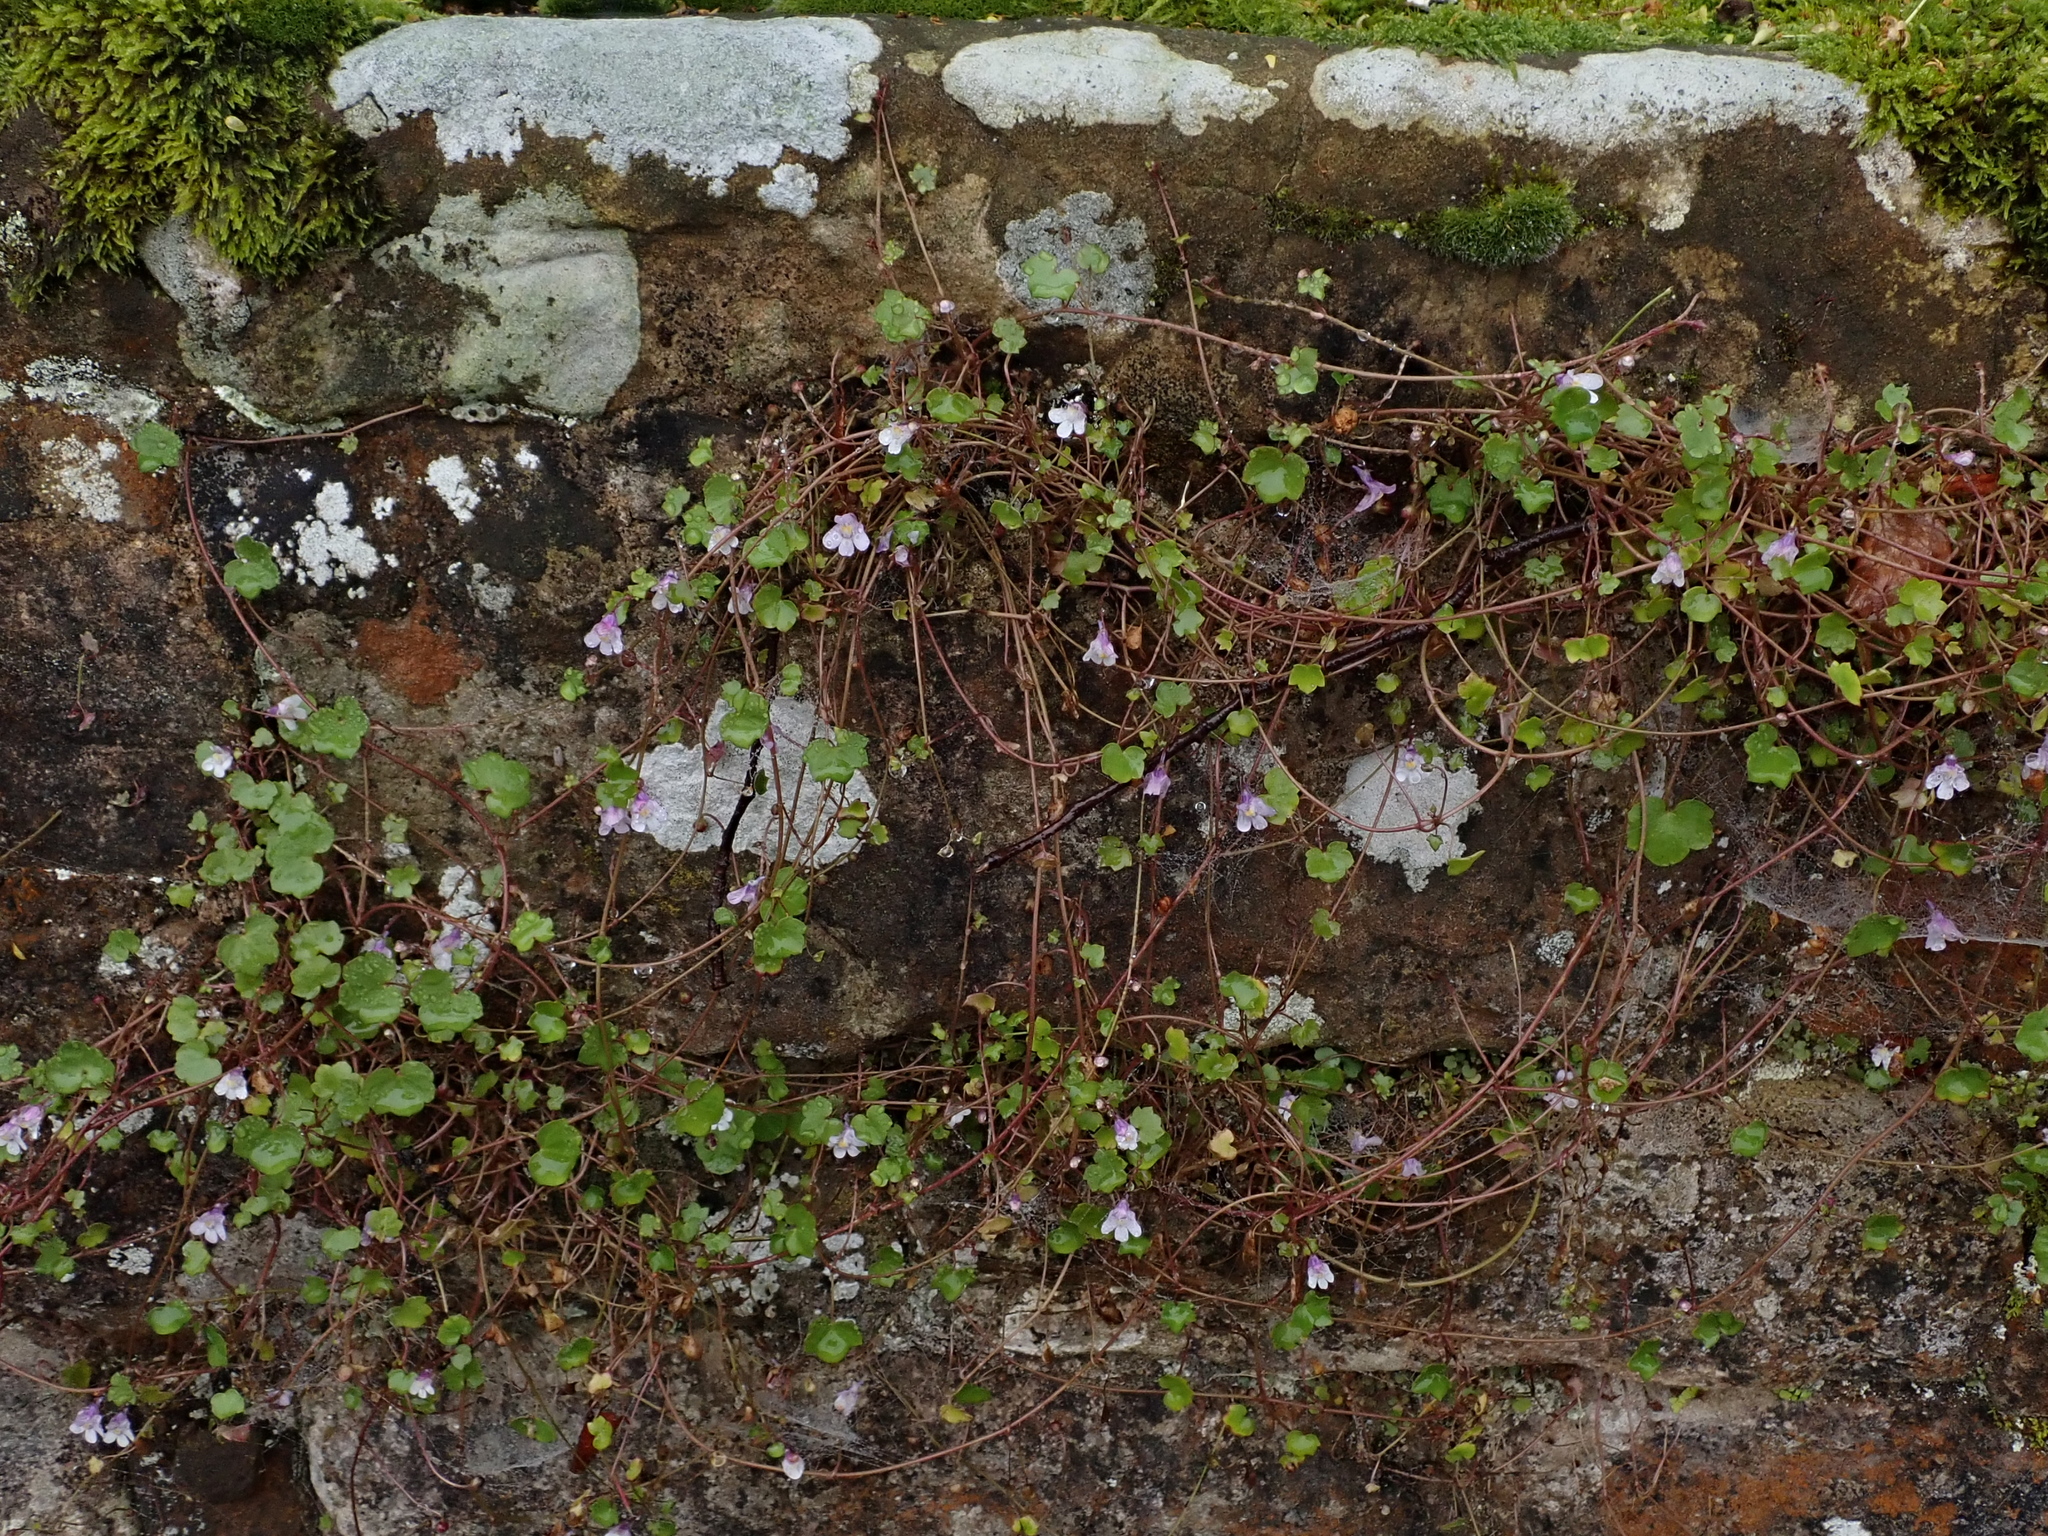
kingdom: Plantae
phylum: Tracheophyta
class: Magnoliopsida
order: Lamiales
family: Plantaginaceae
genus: Cymbalaria
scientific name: Cymbalaria muralis
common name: Ivy-leaved toadflax
